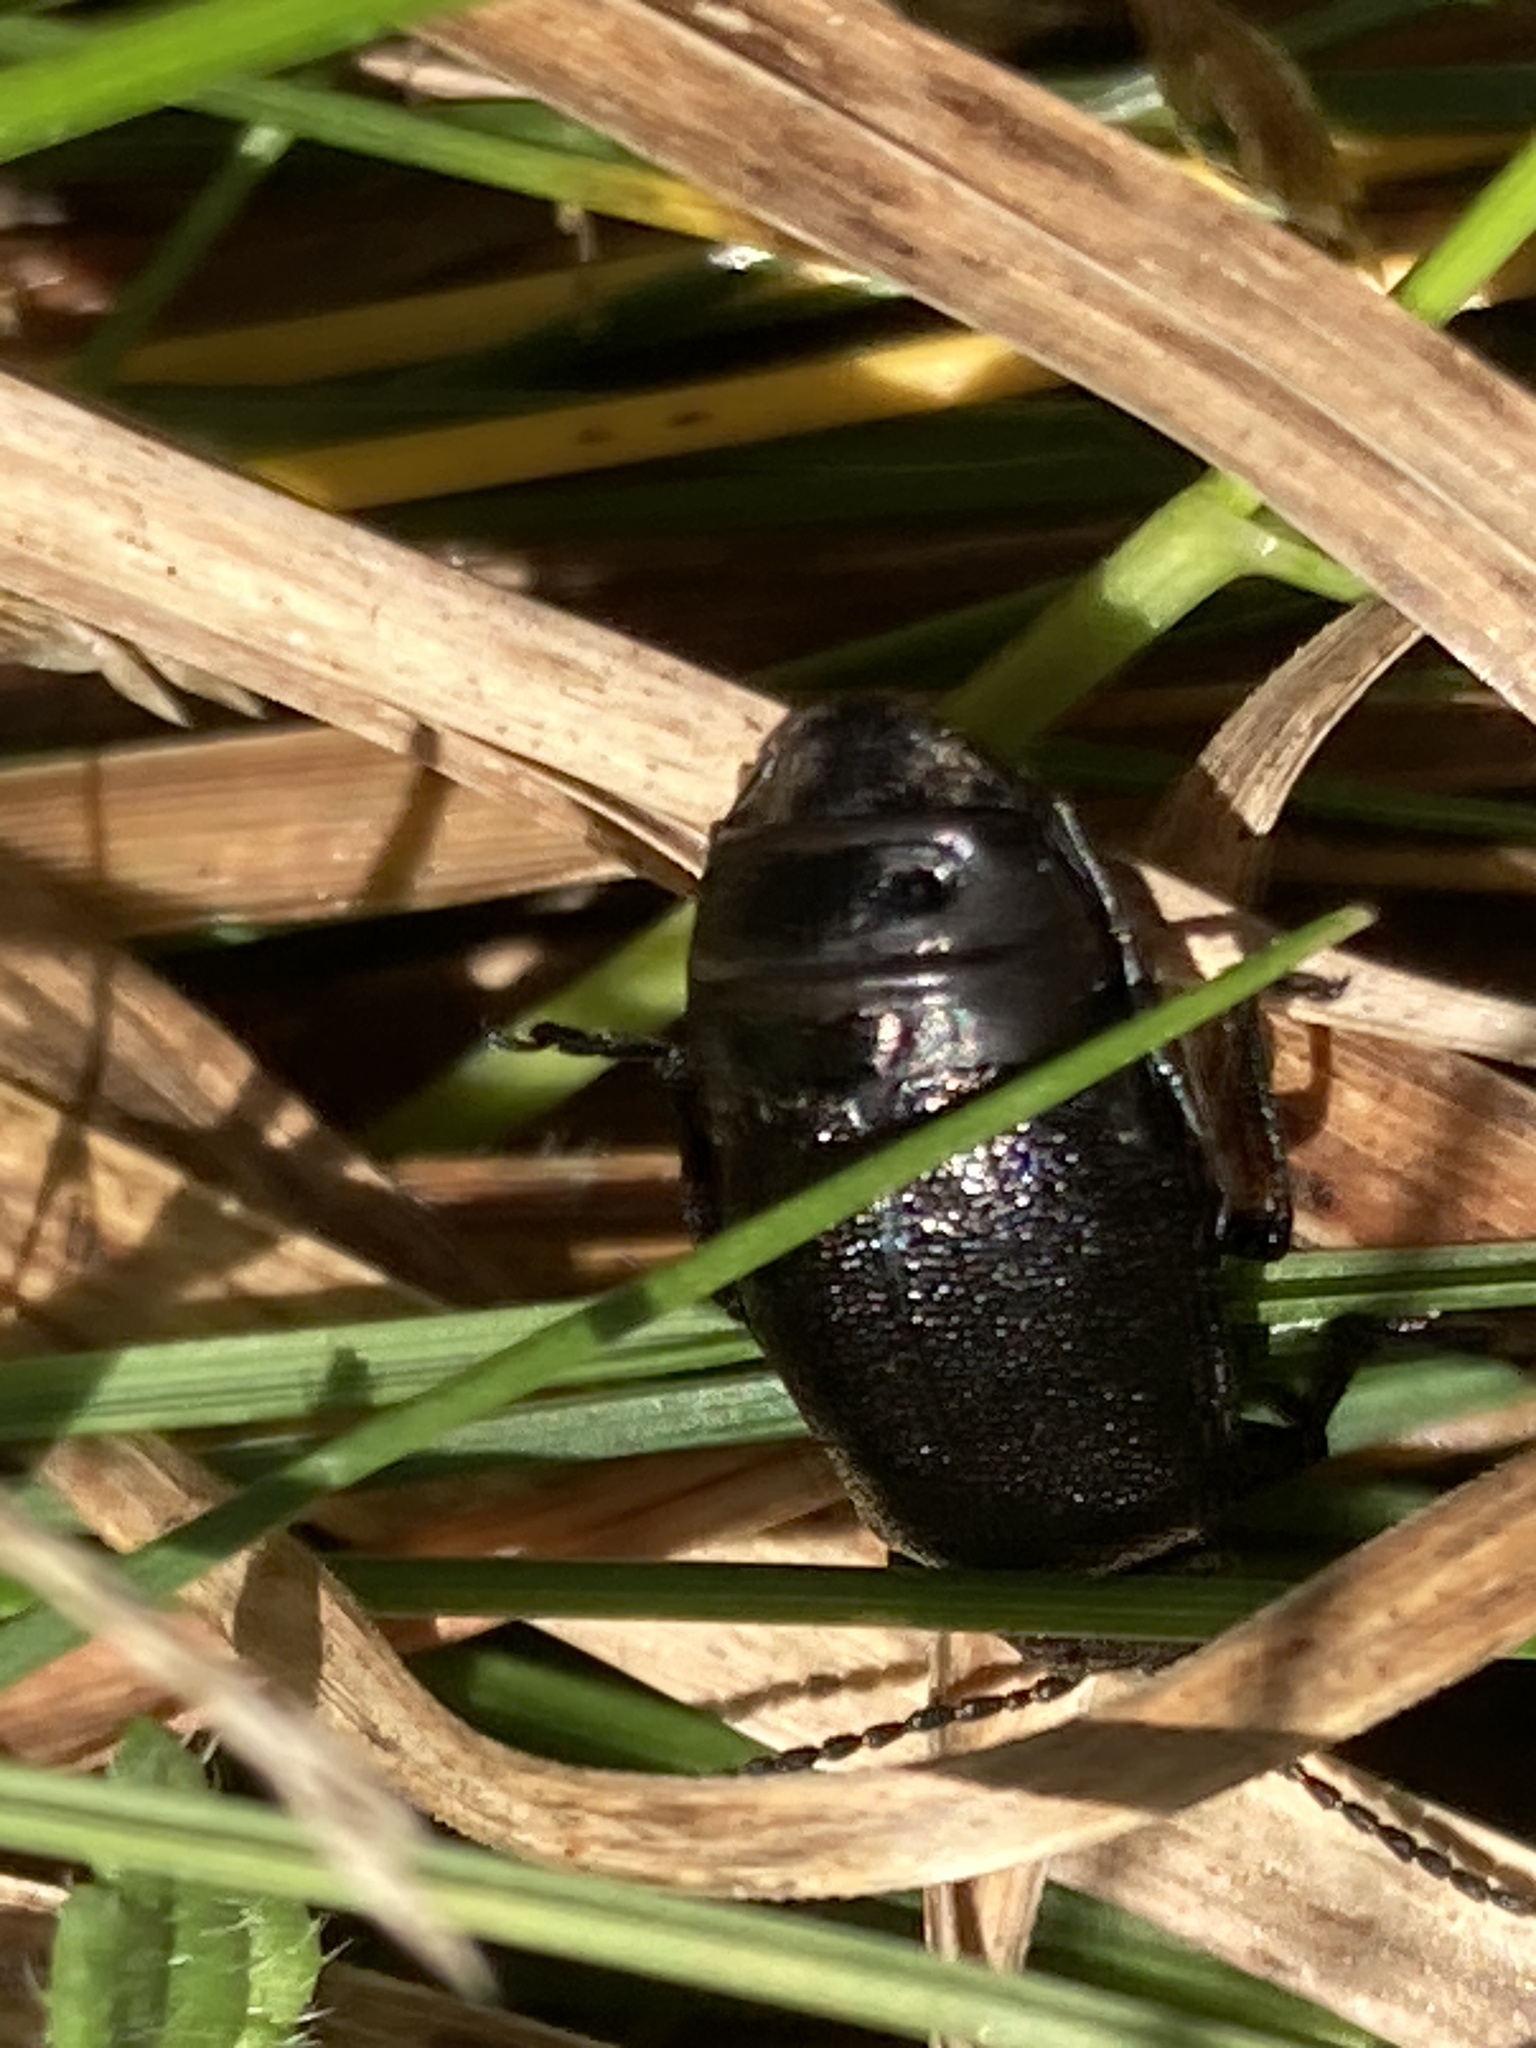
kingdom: Animalia
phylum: Arthropoda
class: Insecta
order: Coleoptera
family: Chrysomelidae
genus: Galeruca
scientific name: Galeruca tanaceti
